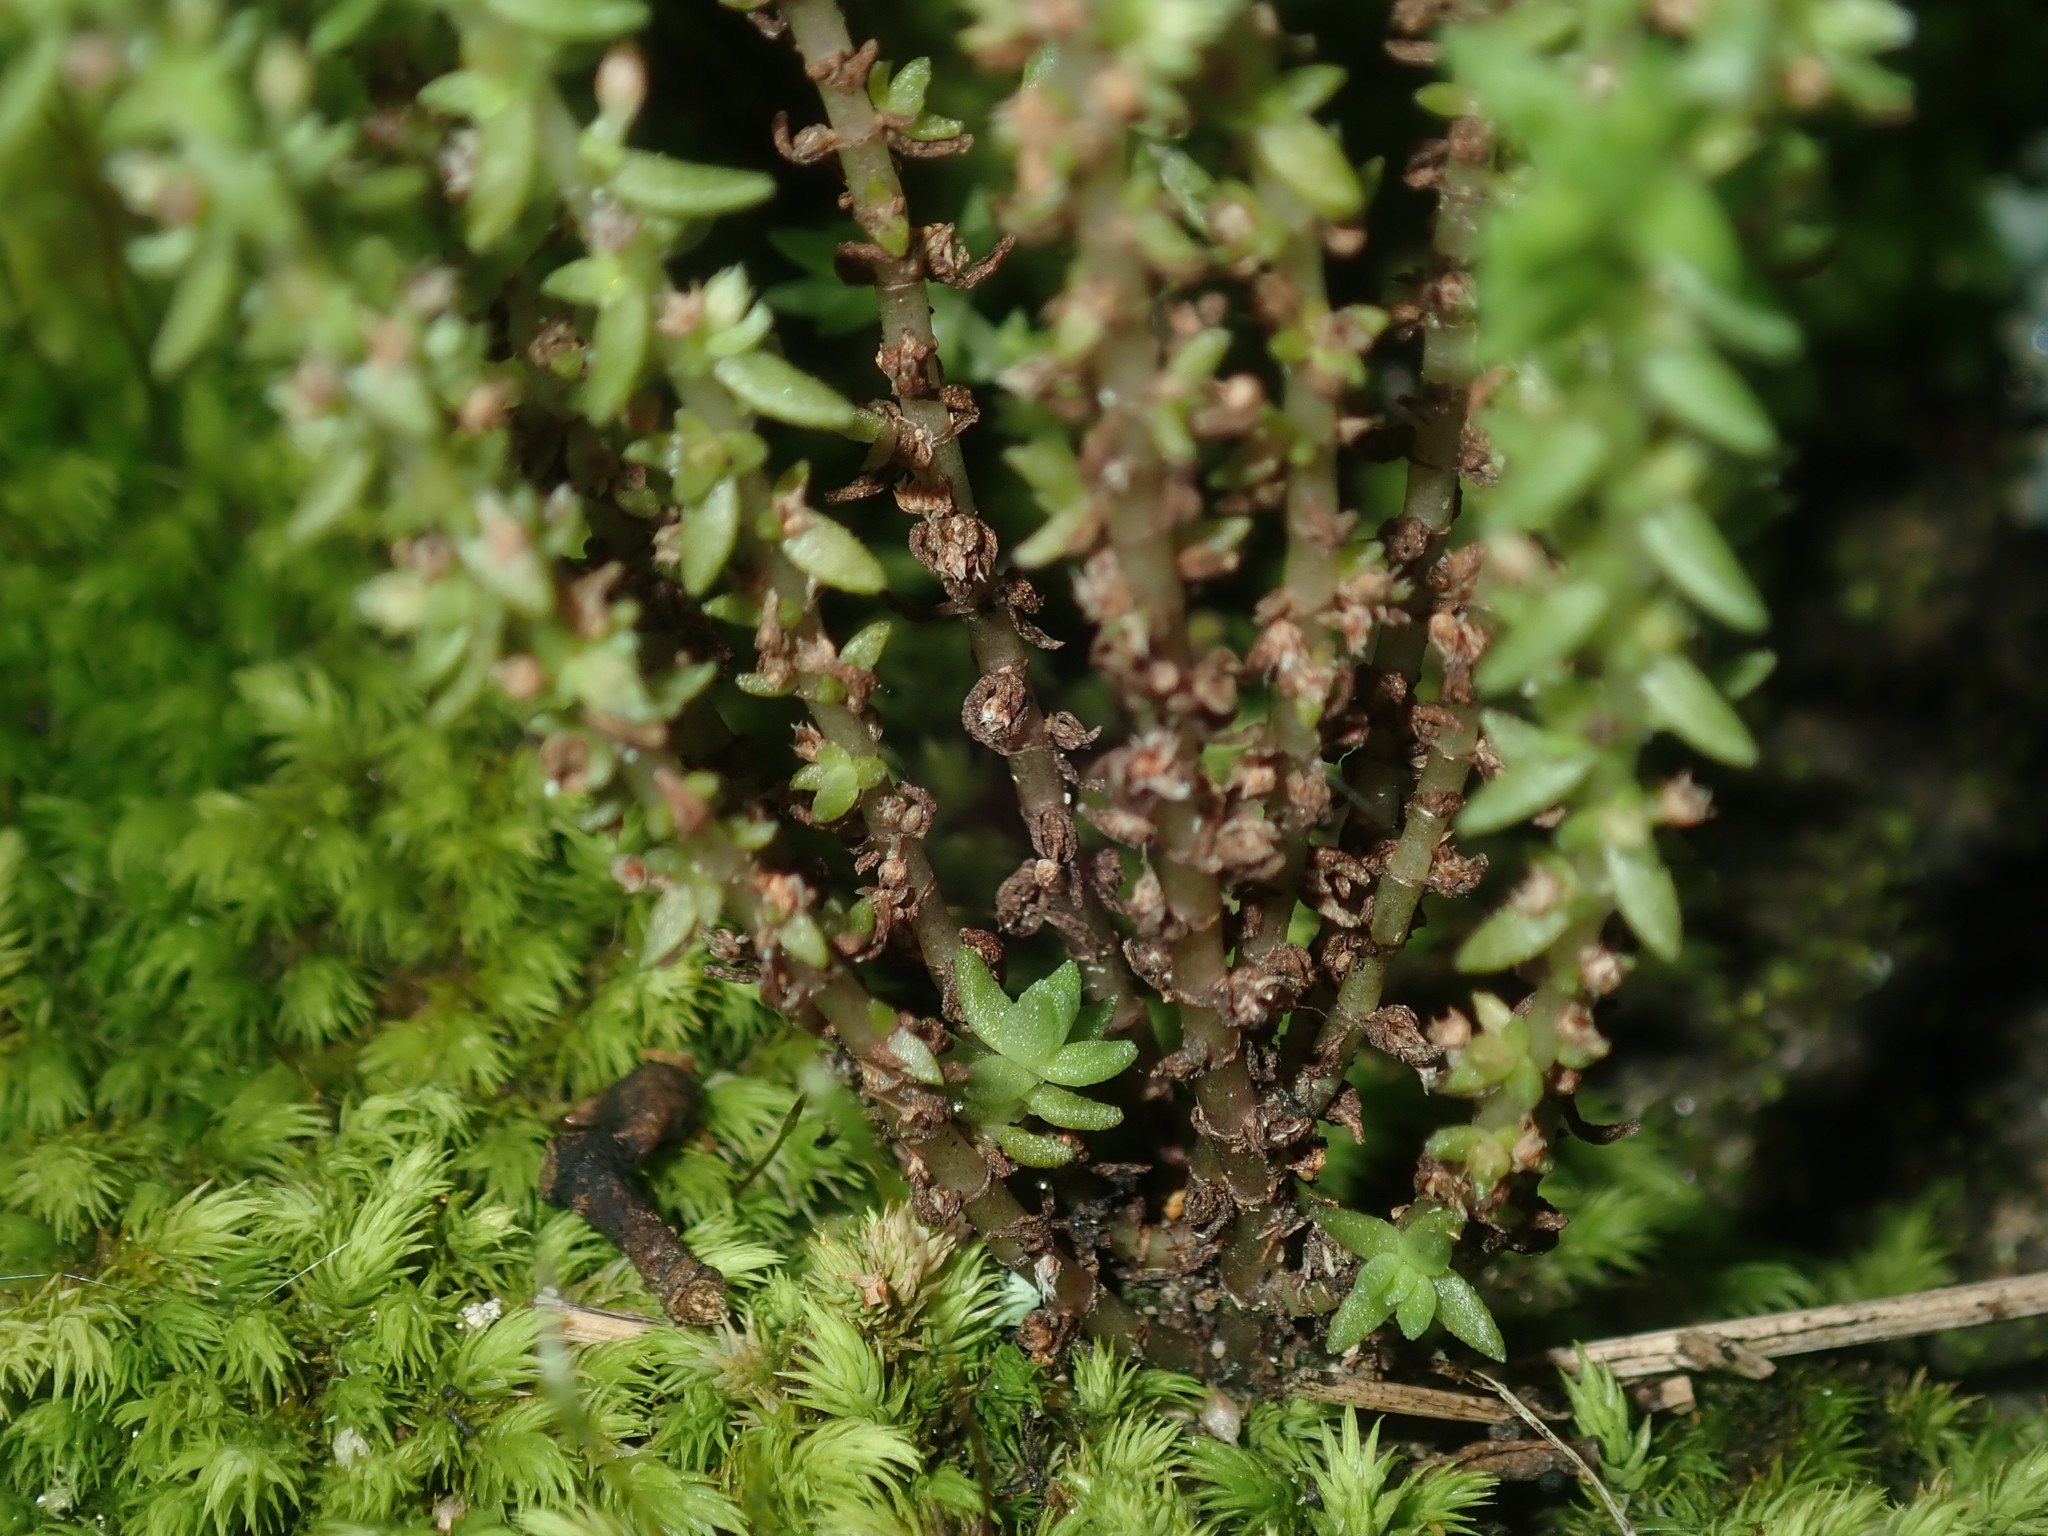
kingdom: Plantae
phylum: Tracheophyta
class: Magnoliopsida
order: Saxifragales
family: Crassulaceae
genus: Crassula
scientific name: Crassula sieberiana
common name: Siberian pygmyweed
